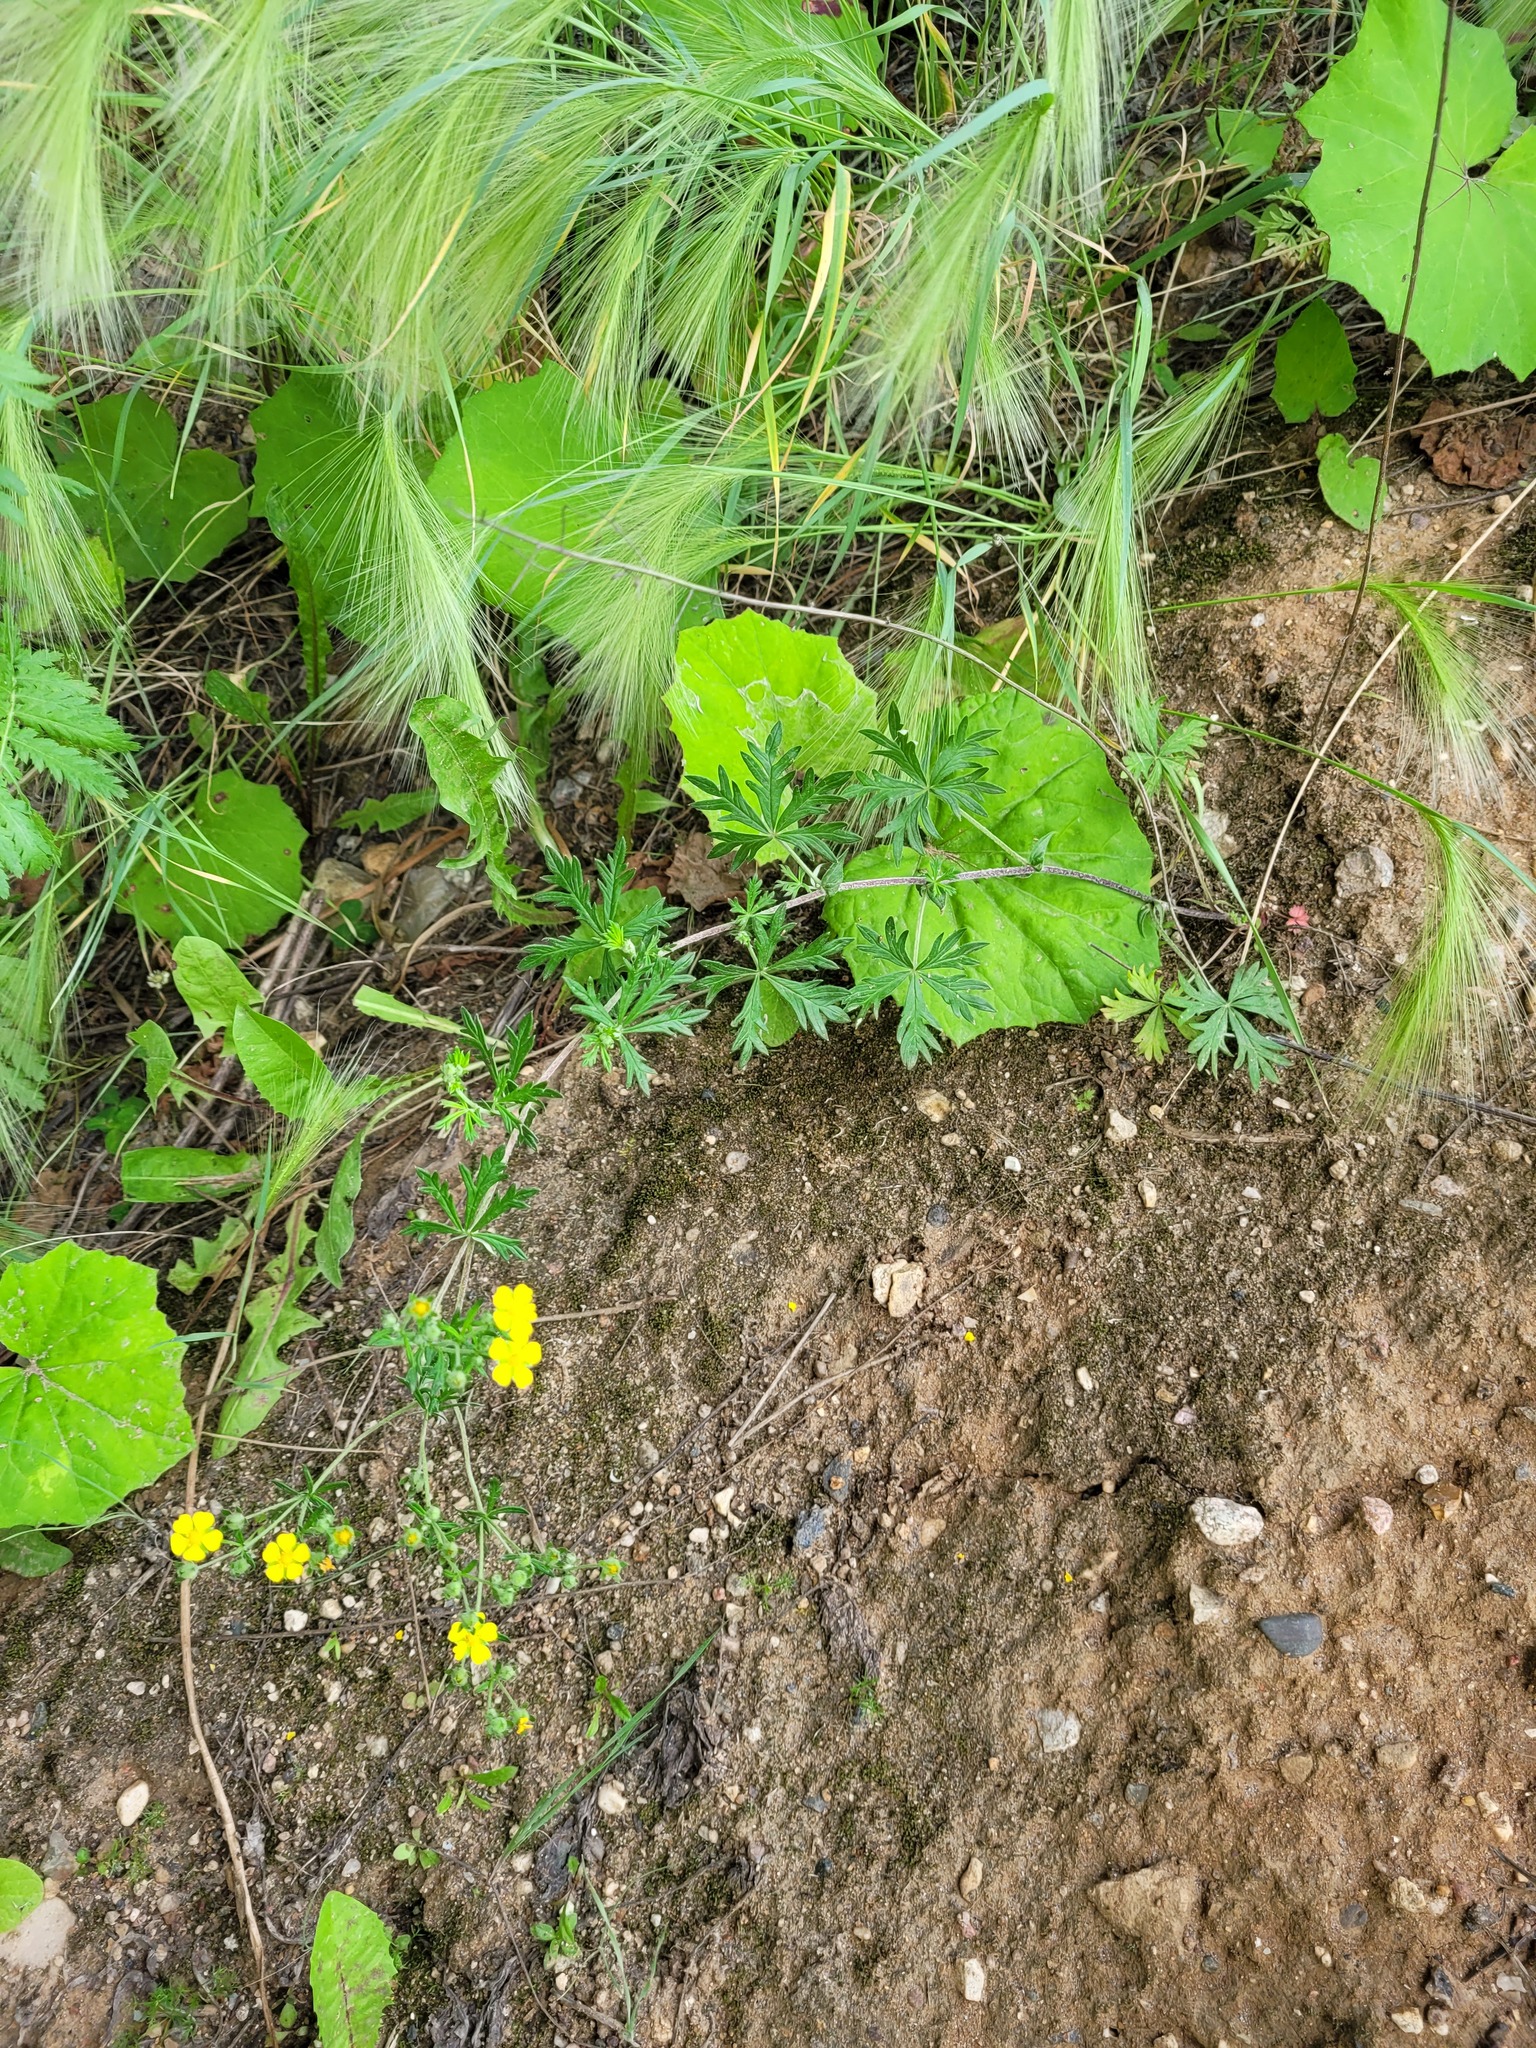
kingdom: Plantae
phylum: Tracheophyta
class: Magnoliopsida
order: Rosales
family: Rosaceae
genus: Potentilla
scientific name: Potentilla argentea
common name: Hoary cinquefoil
